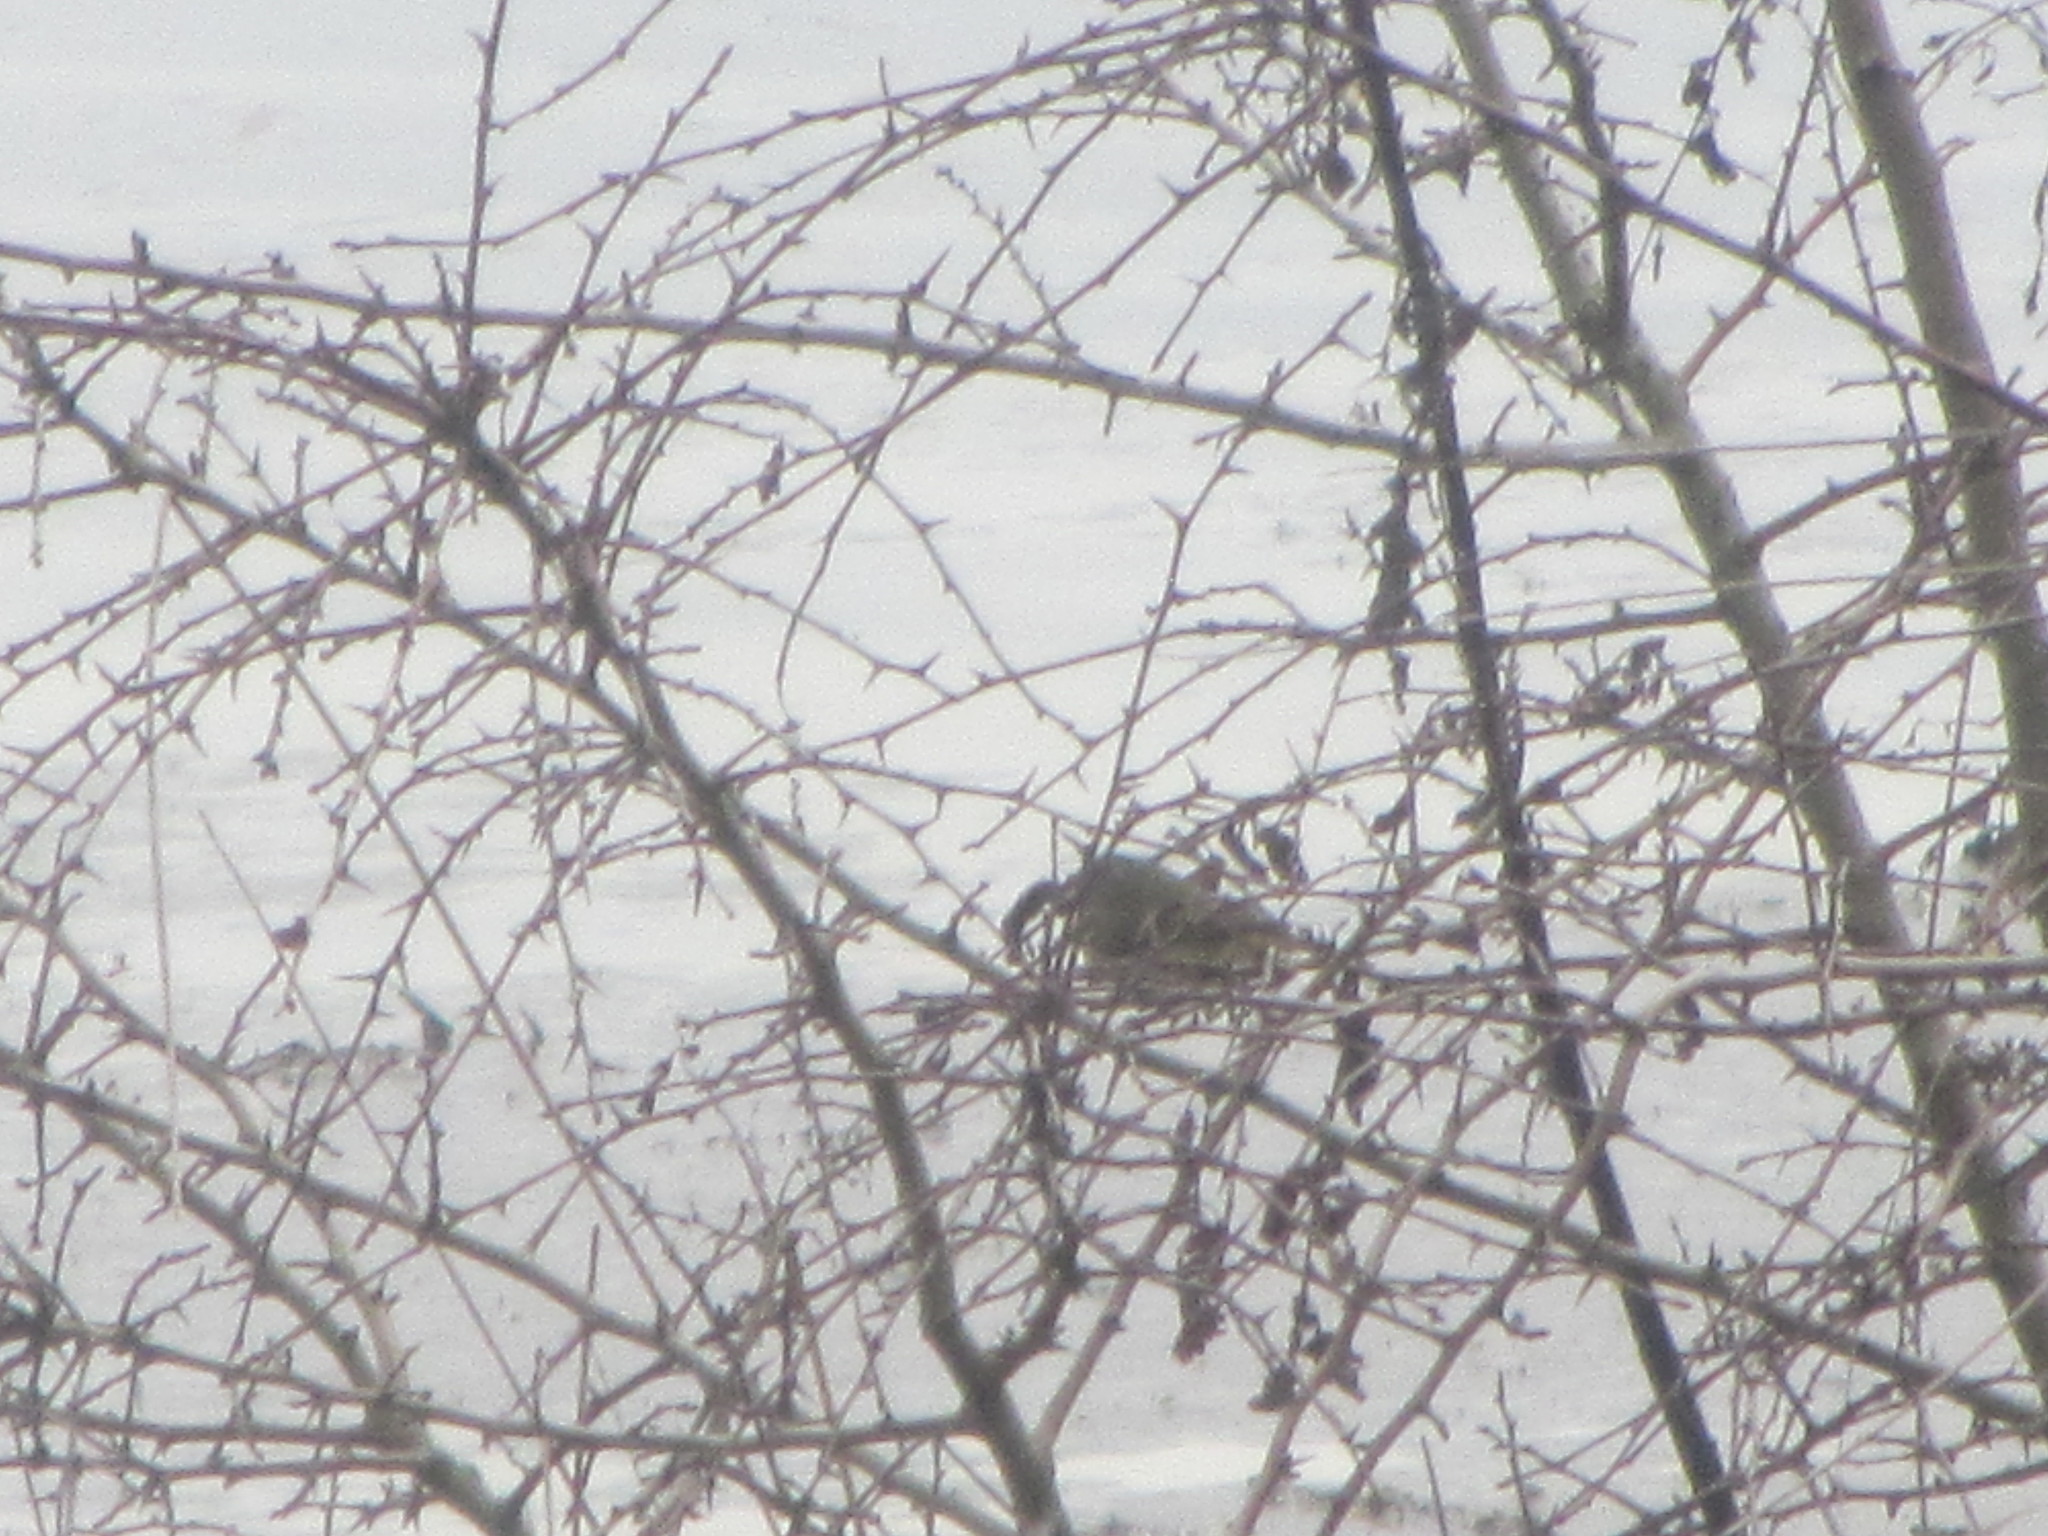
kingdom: Animalia
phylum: Chordata
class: Aves
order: Passeriformes
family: Regulidae
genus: Regulus
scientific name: Regulus calendula
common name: Ruby-crowned kinglet
